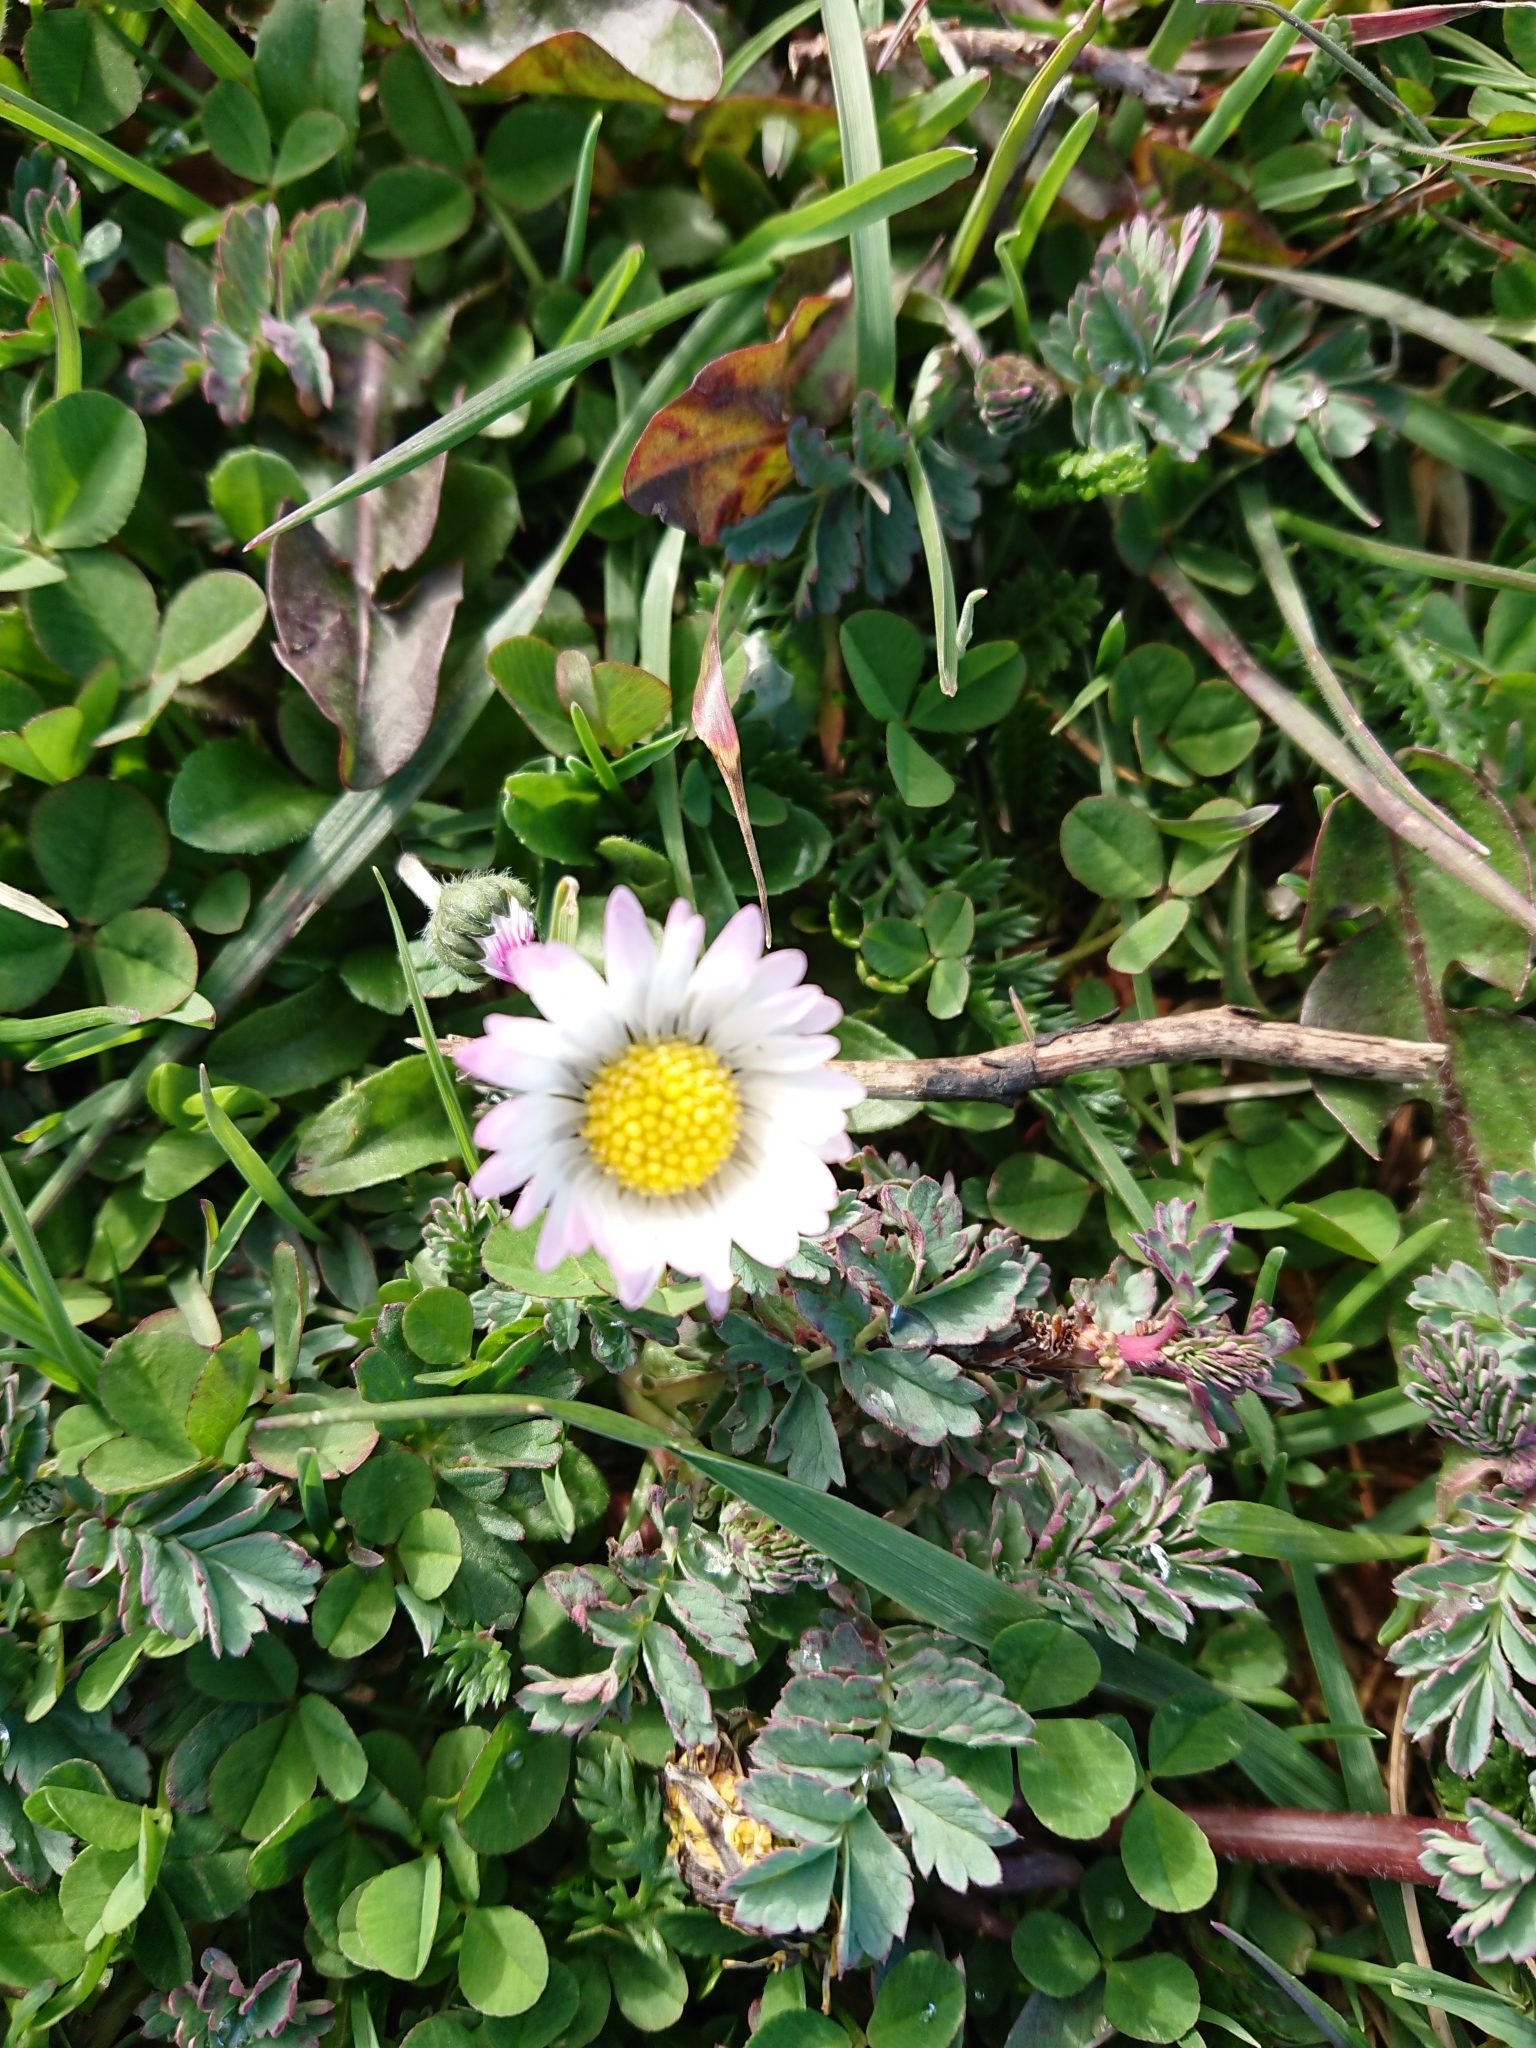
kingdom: Plantae
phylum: Tracheophyta
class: Magnoliopsida
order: Asterales
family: Asteraceae
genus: Bellis
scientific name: Bellis perennis
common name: Lawndaisy
